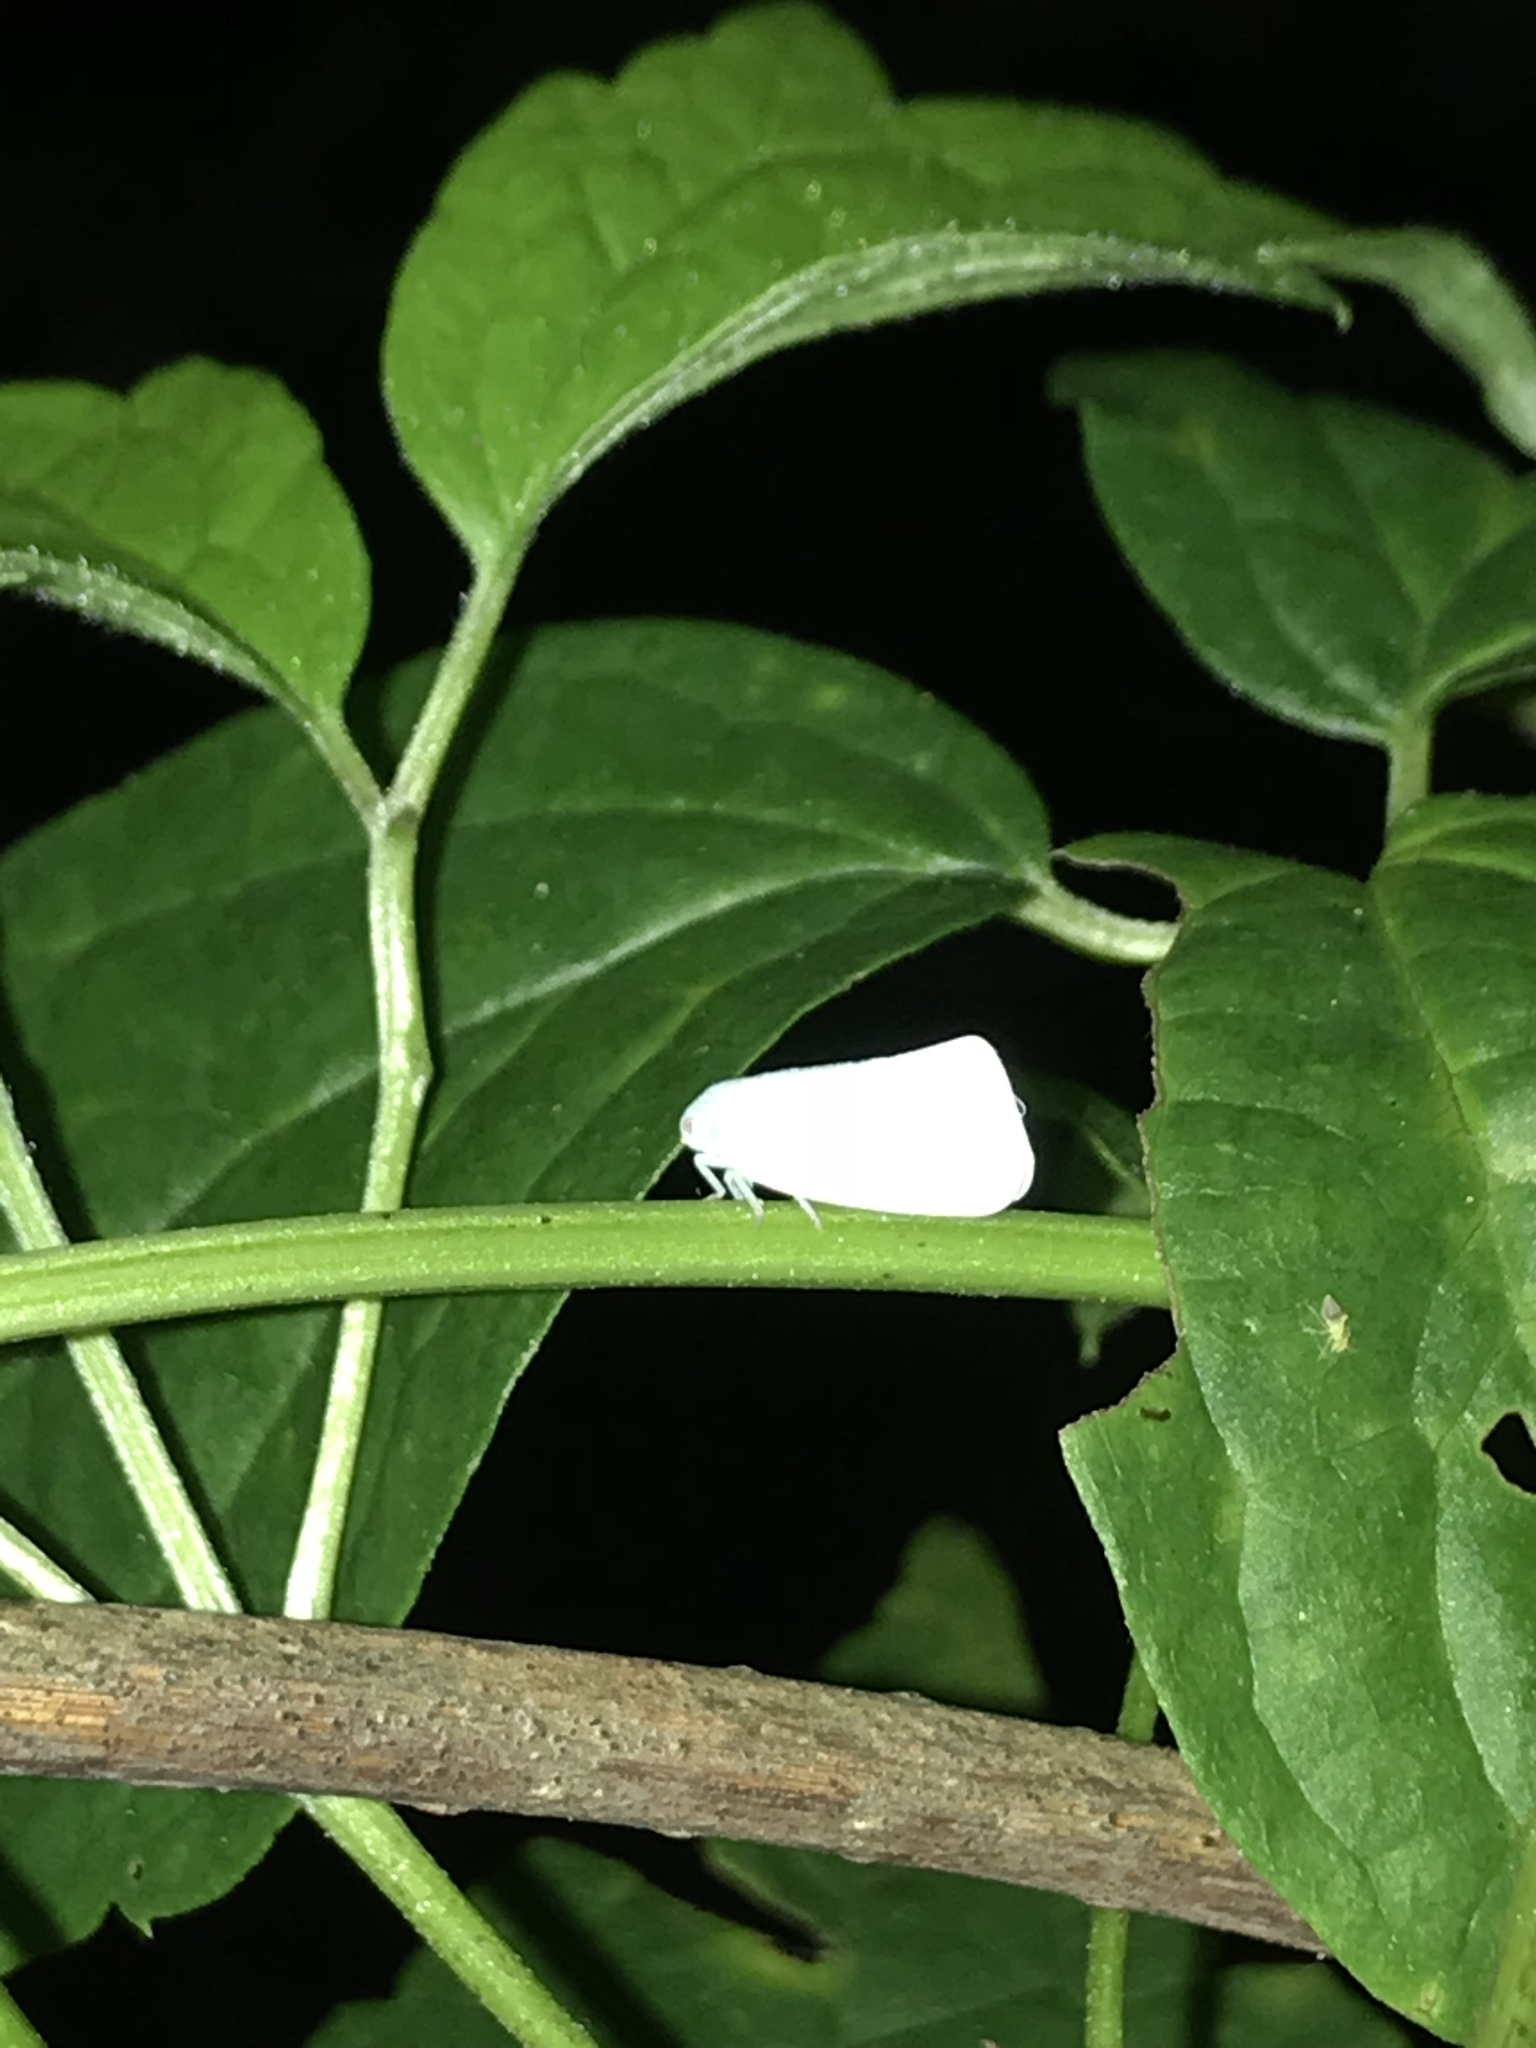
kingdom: Animalia
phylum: Arthropoda
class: Insecta
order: Hemiptera
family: Flatidae
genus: Flatormenis
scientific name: Flatormenis proxima
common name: Northern flatid planthopper
